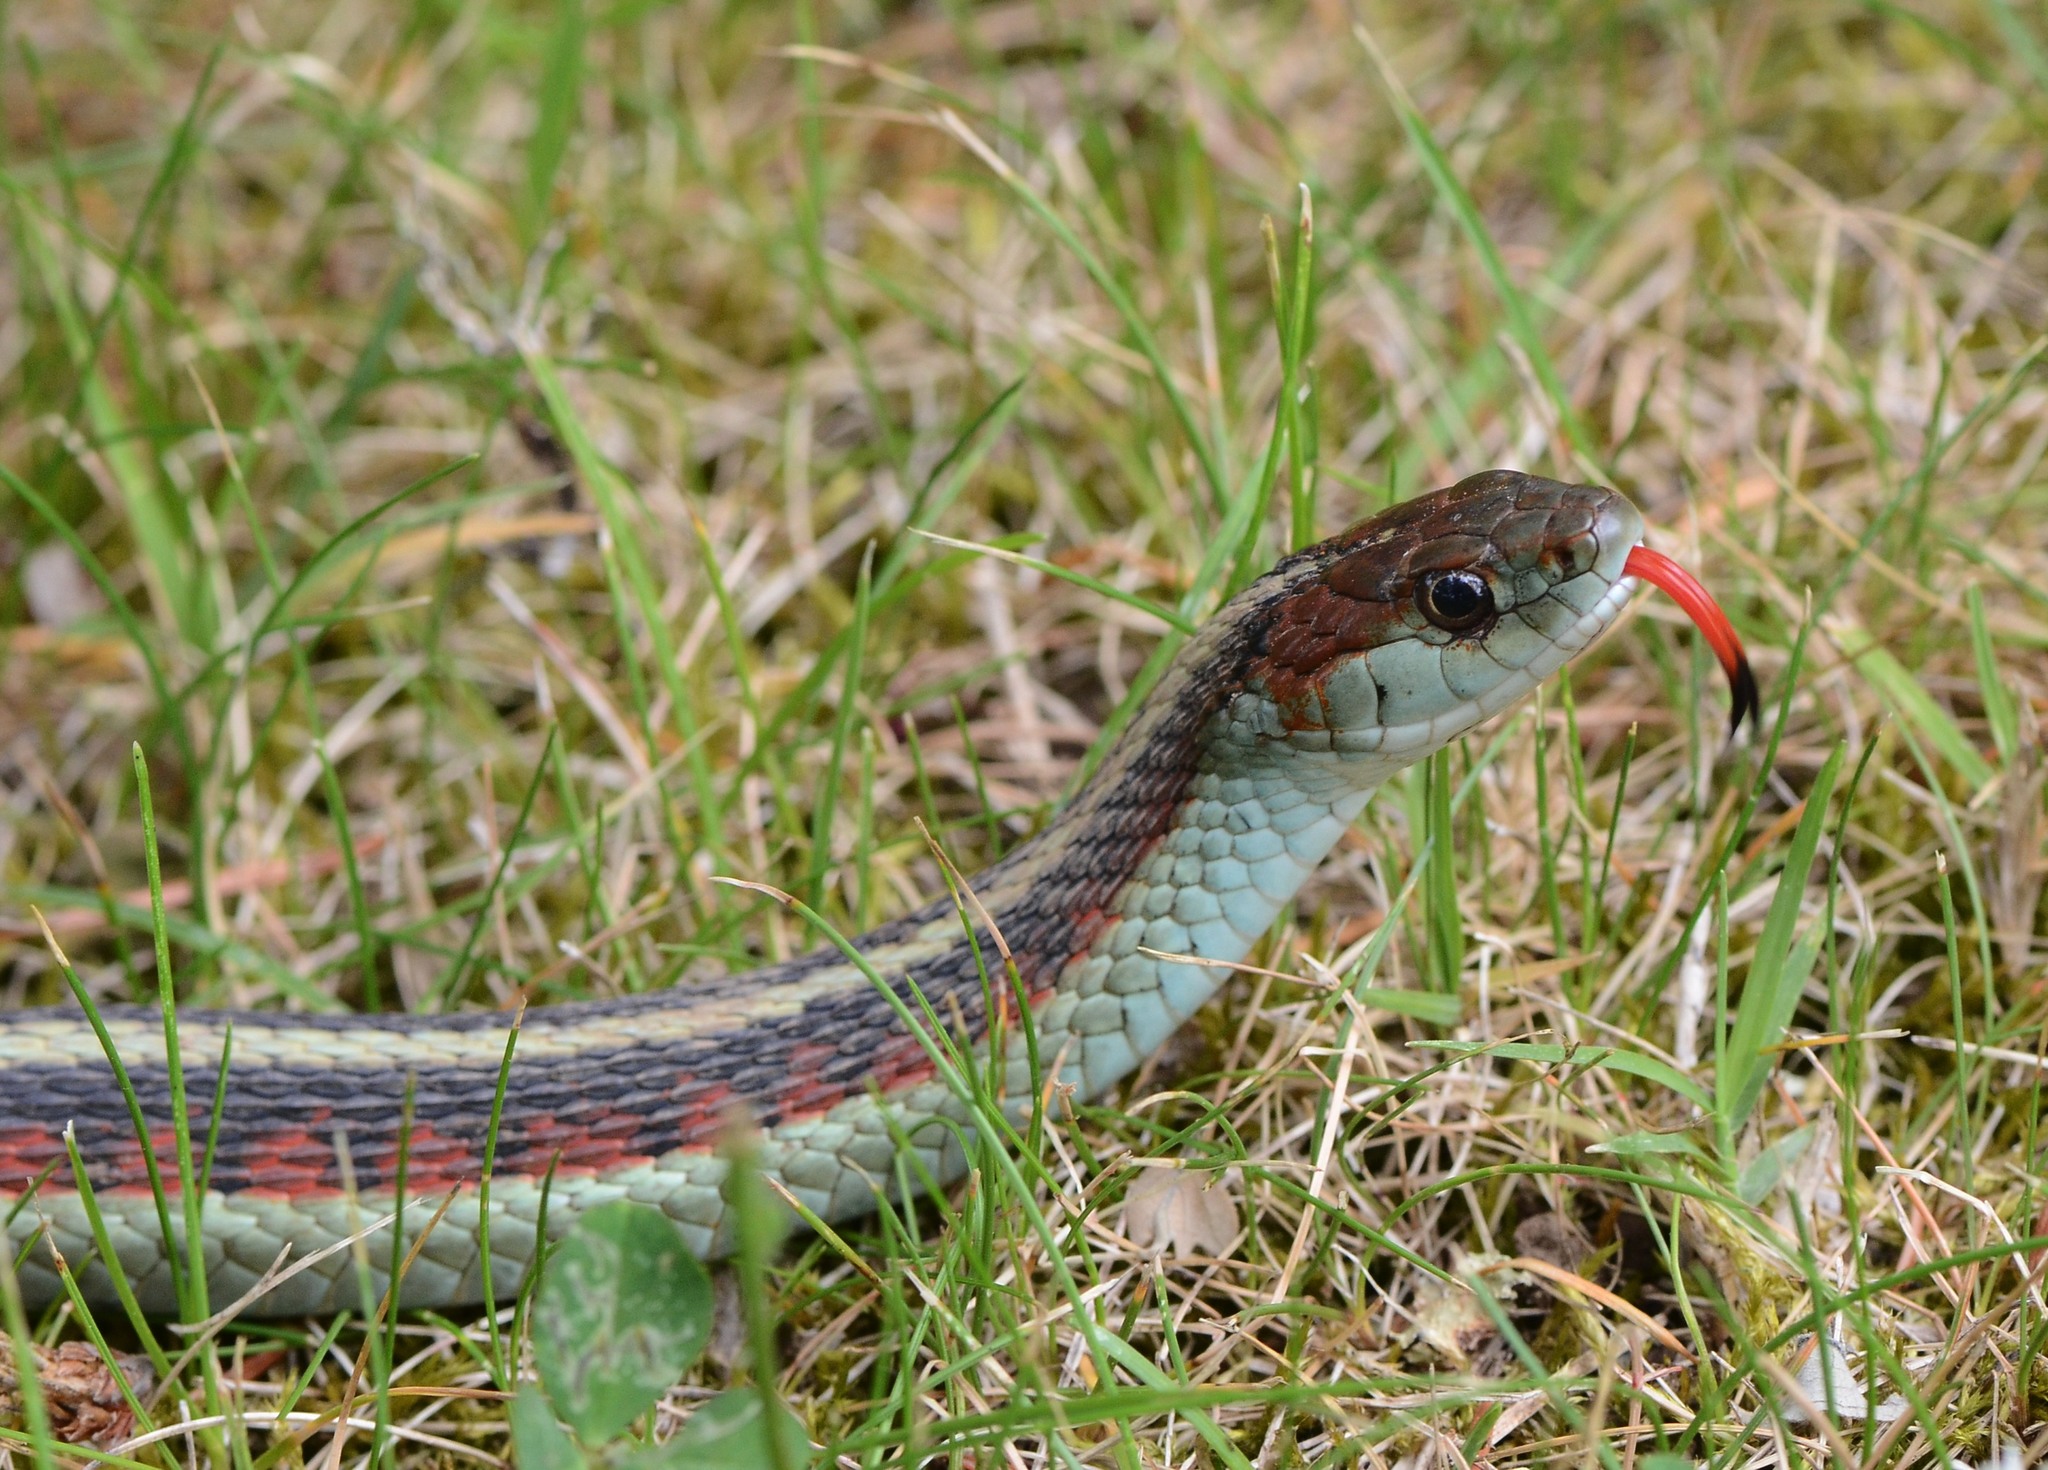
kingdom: Animalia
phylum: Chordata
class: Squamata
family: Colubridae
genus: Thamnophis
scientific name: Thamnophis sirtalis
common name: Common garter snake
